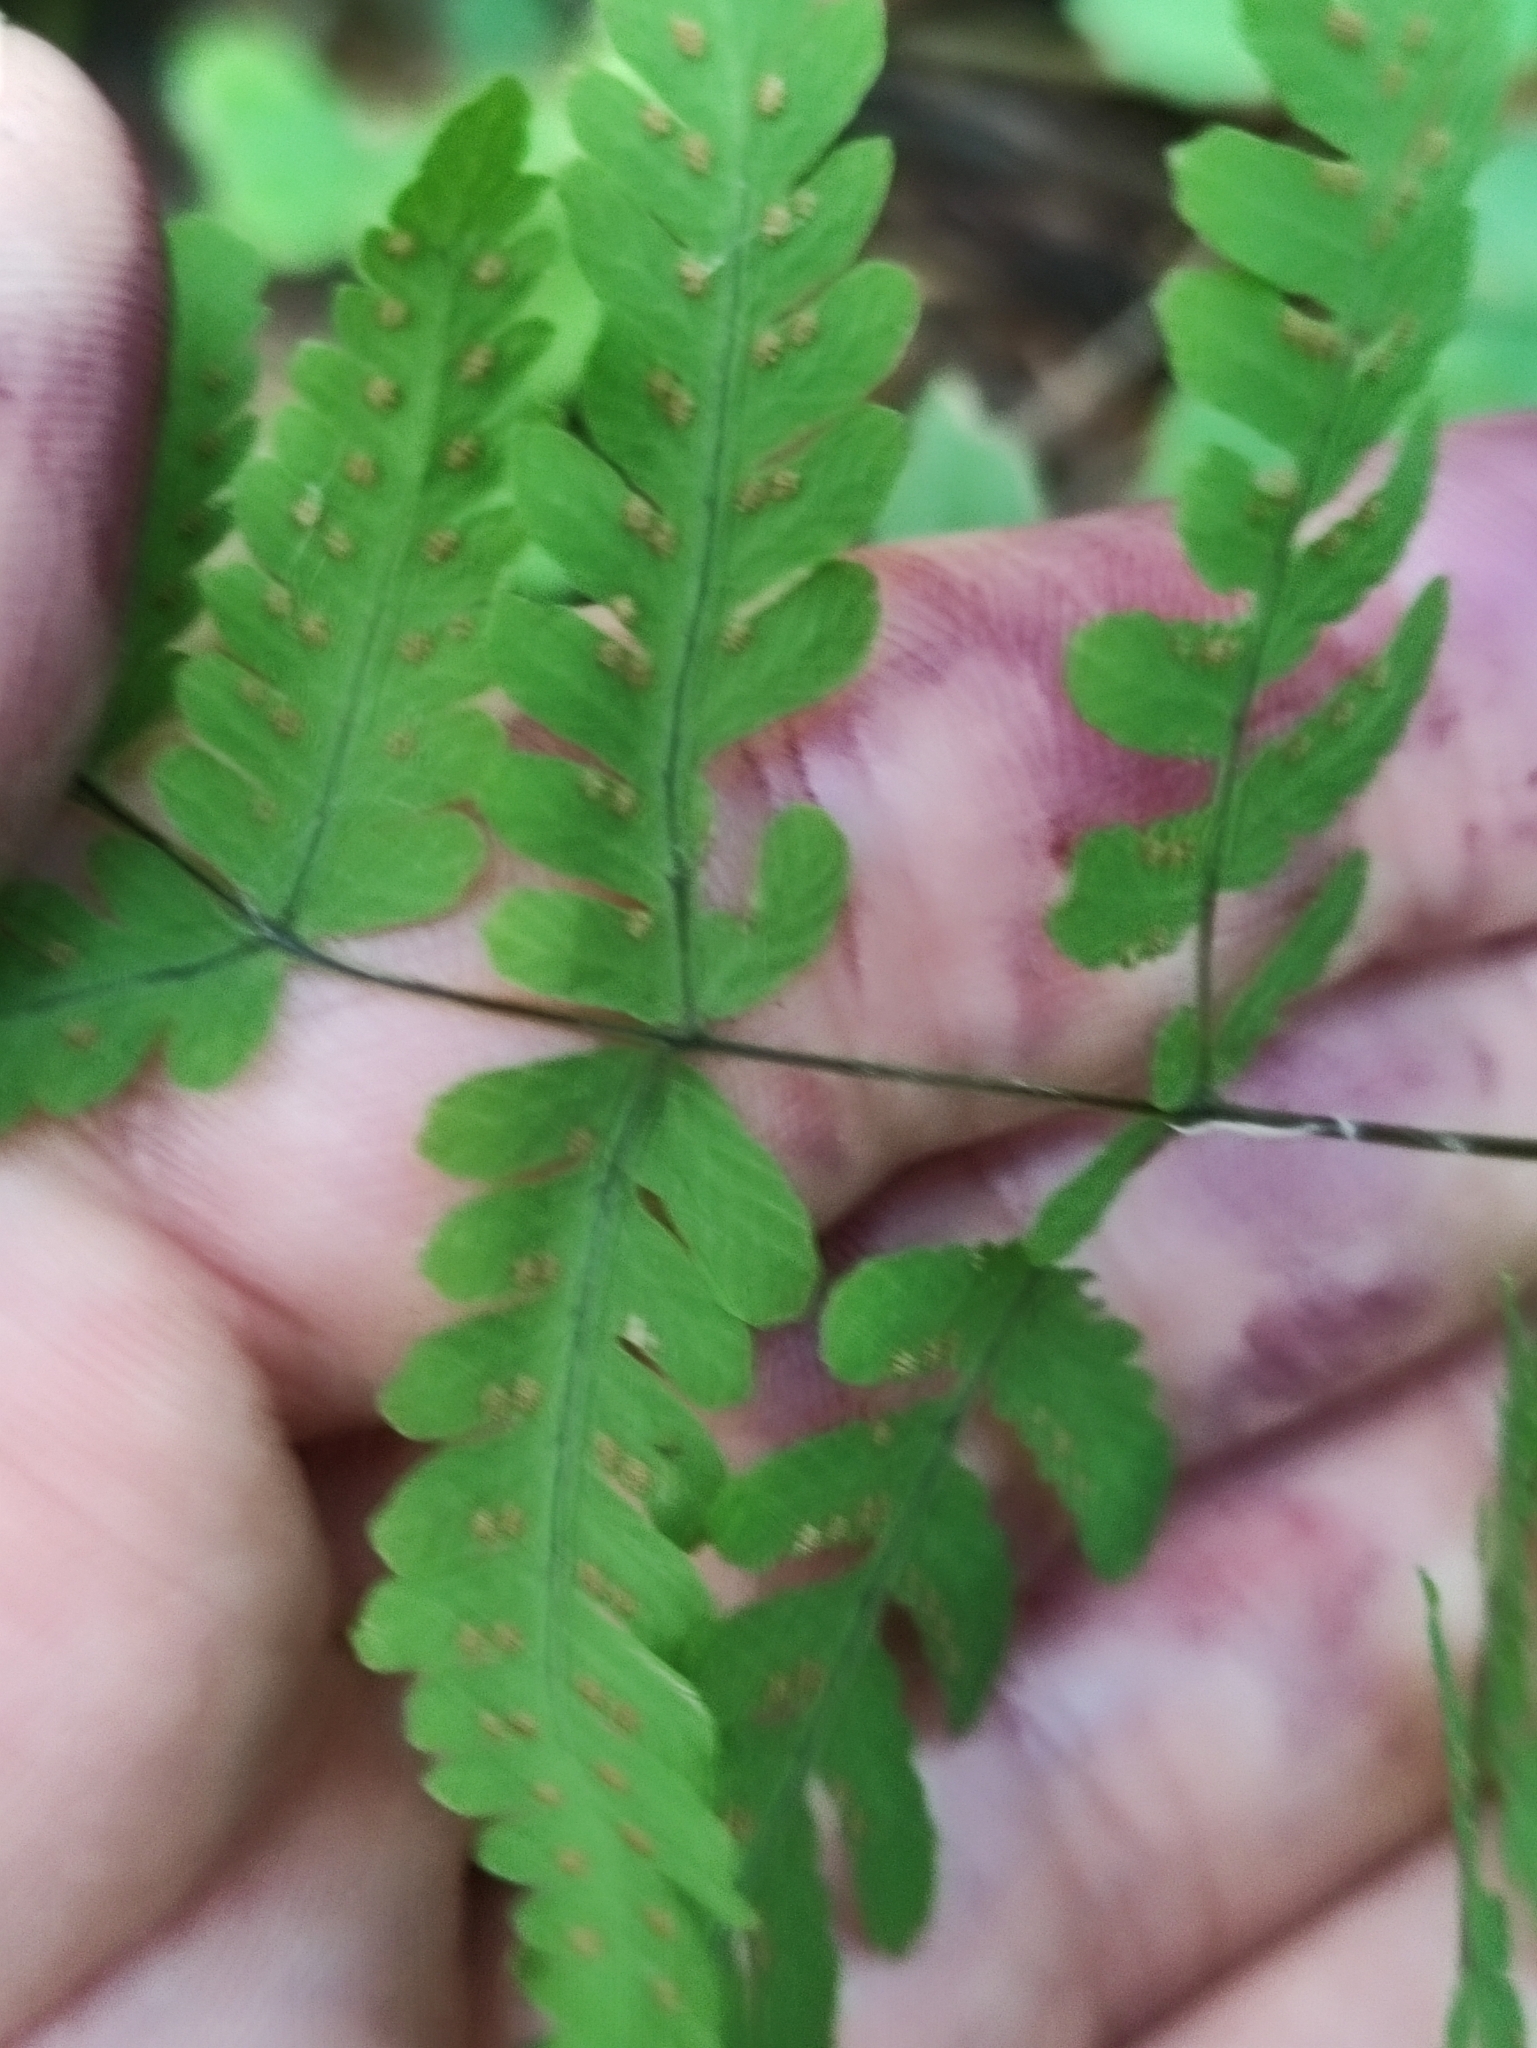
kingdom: Plantae
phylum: Tracheophyta
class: Polypodiopsida
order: Polypodiales
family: Cystopteridaceae
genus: Gymnocarpium
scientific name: Gymnocarpium dryopteris
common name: Oak fern
